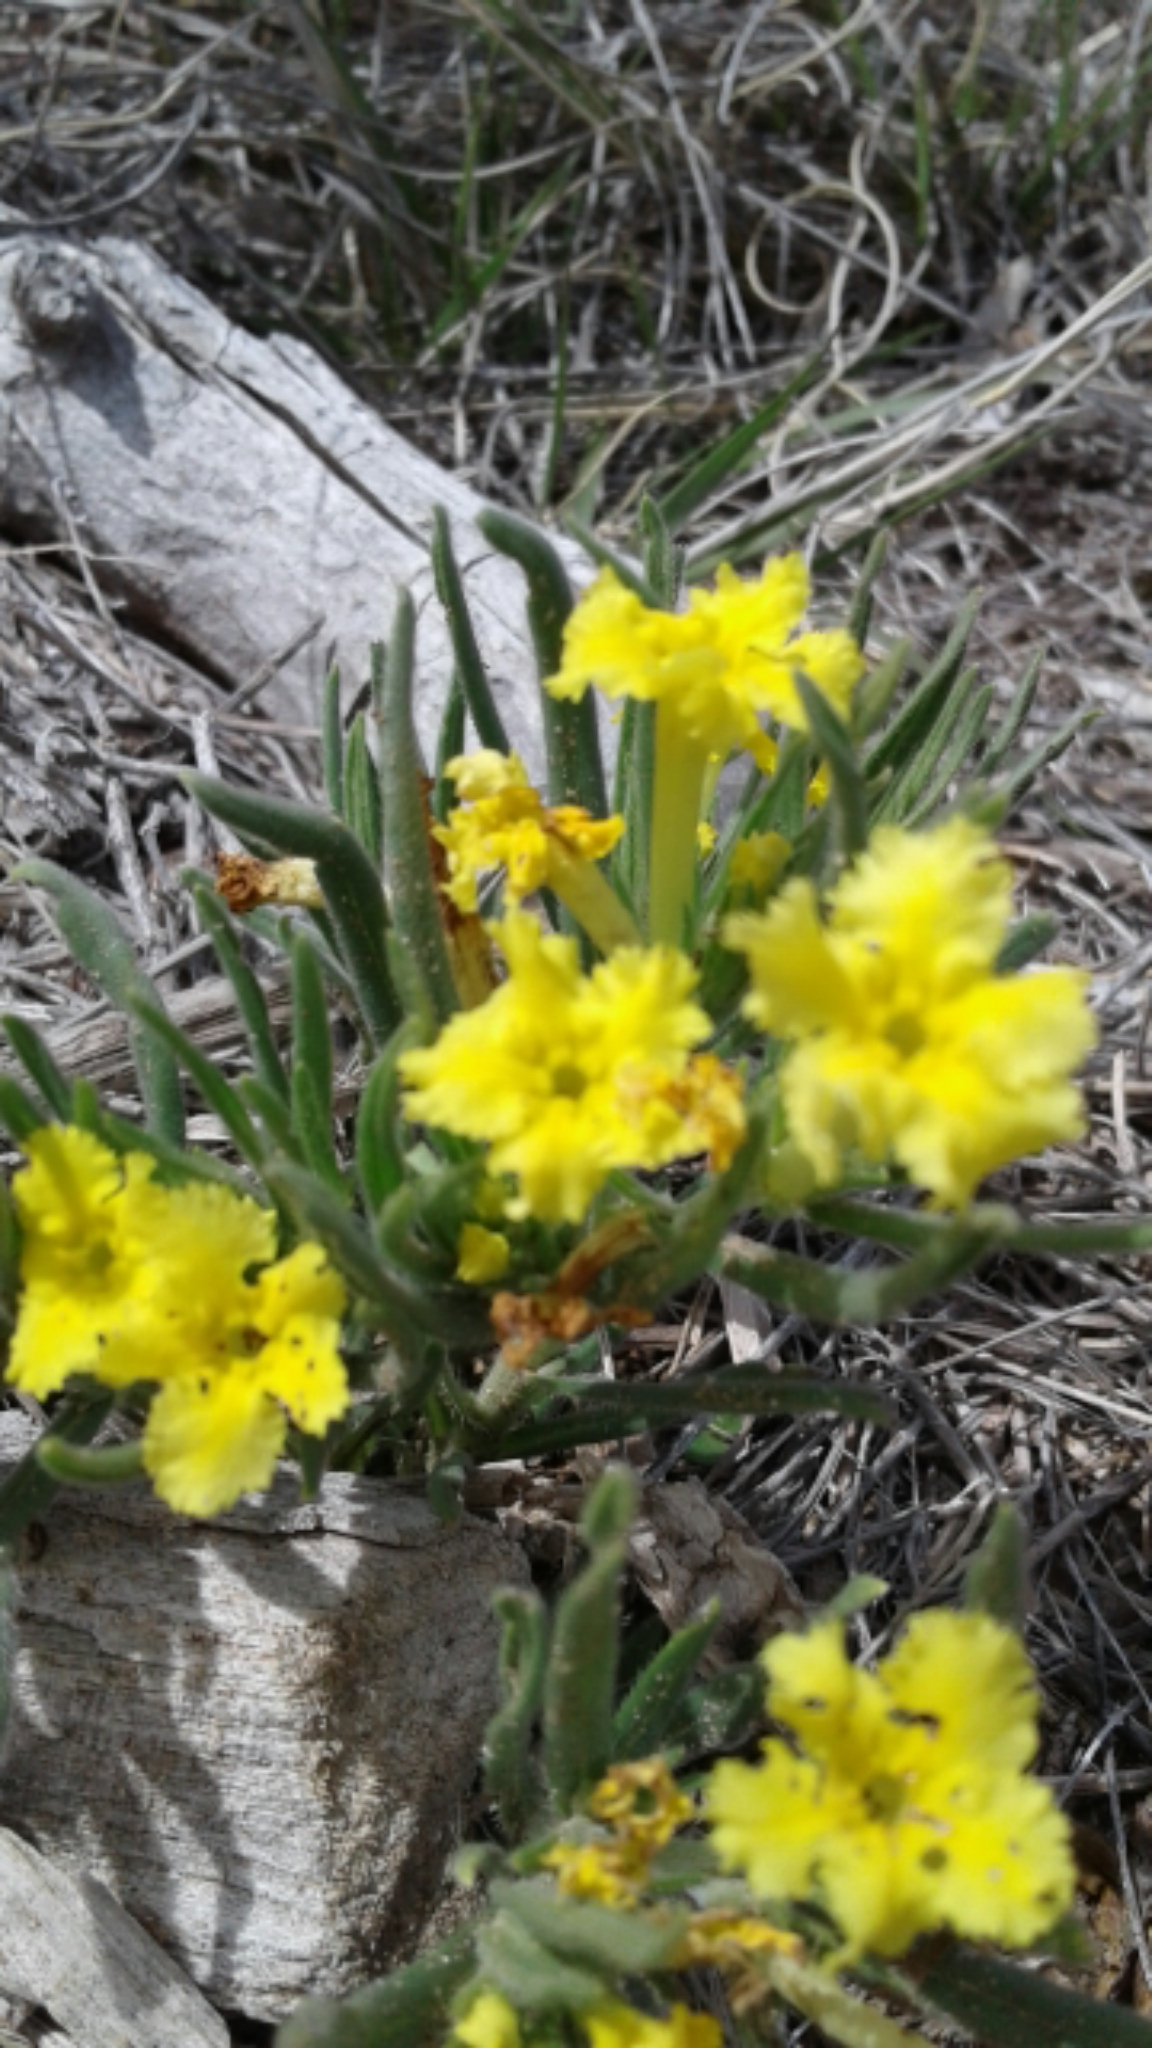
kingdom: Plantae
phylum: Tracheophyta
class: Magnoliopsida
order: Boraginales
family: Boraginaceae
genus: Lithospermum
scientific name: Lithospermum incisum
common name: Fringed gromwell
